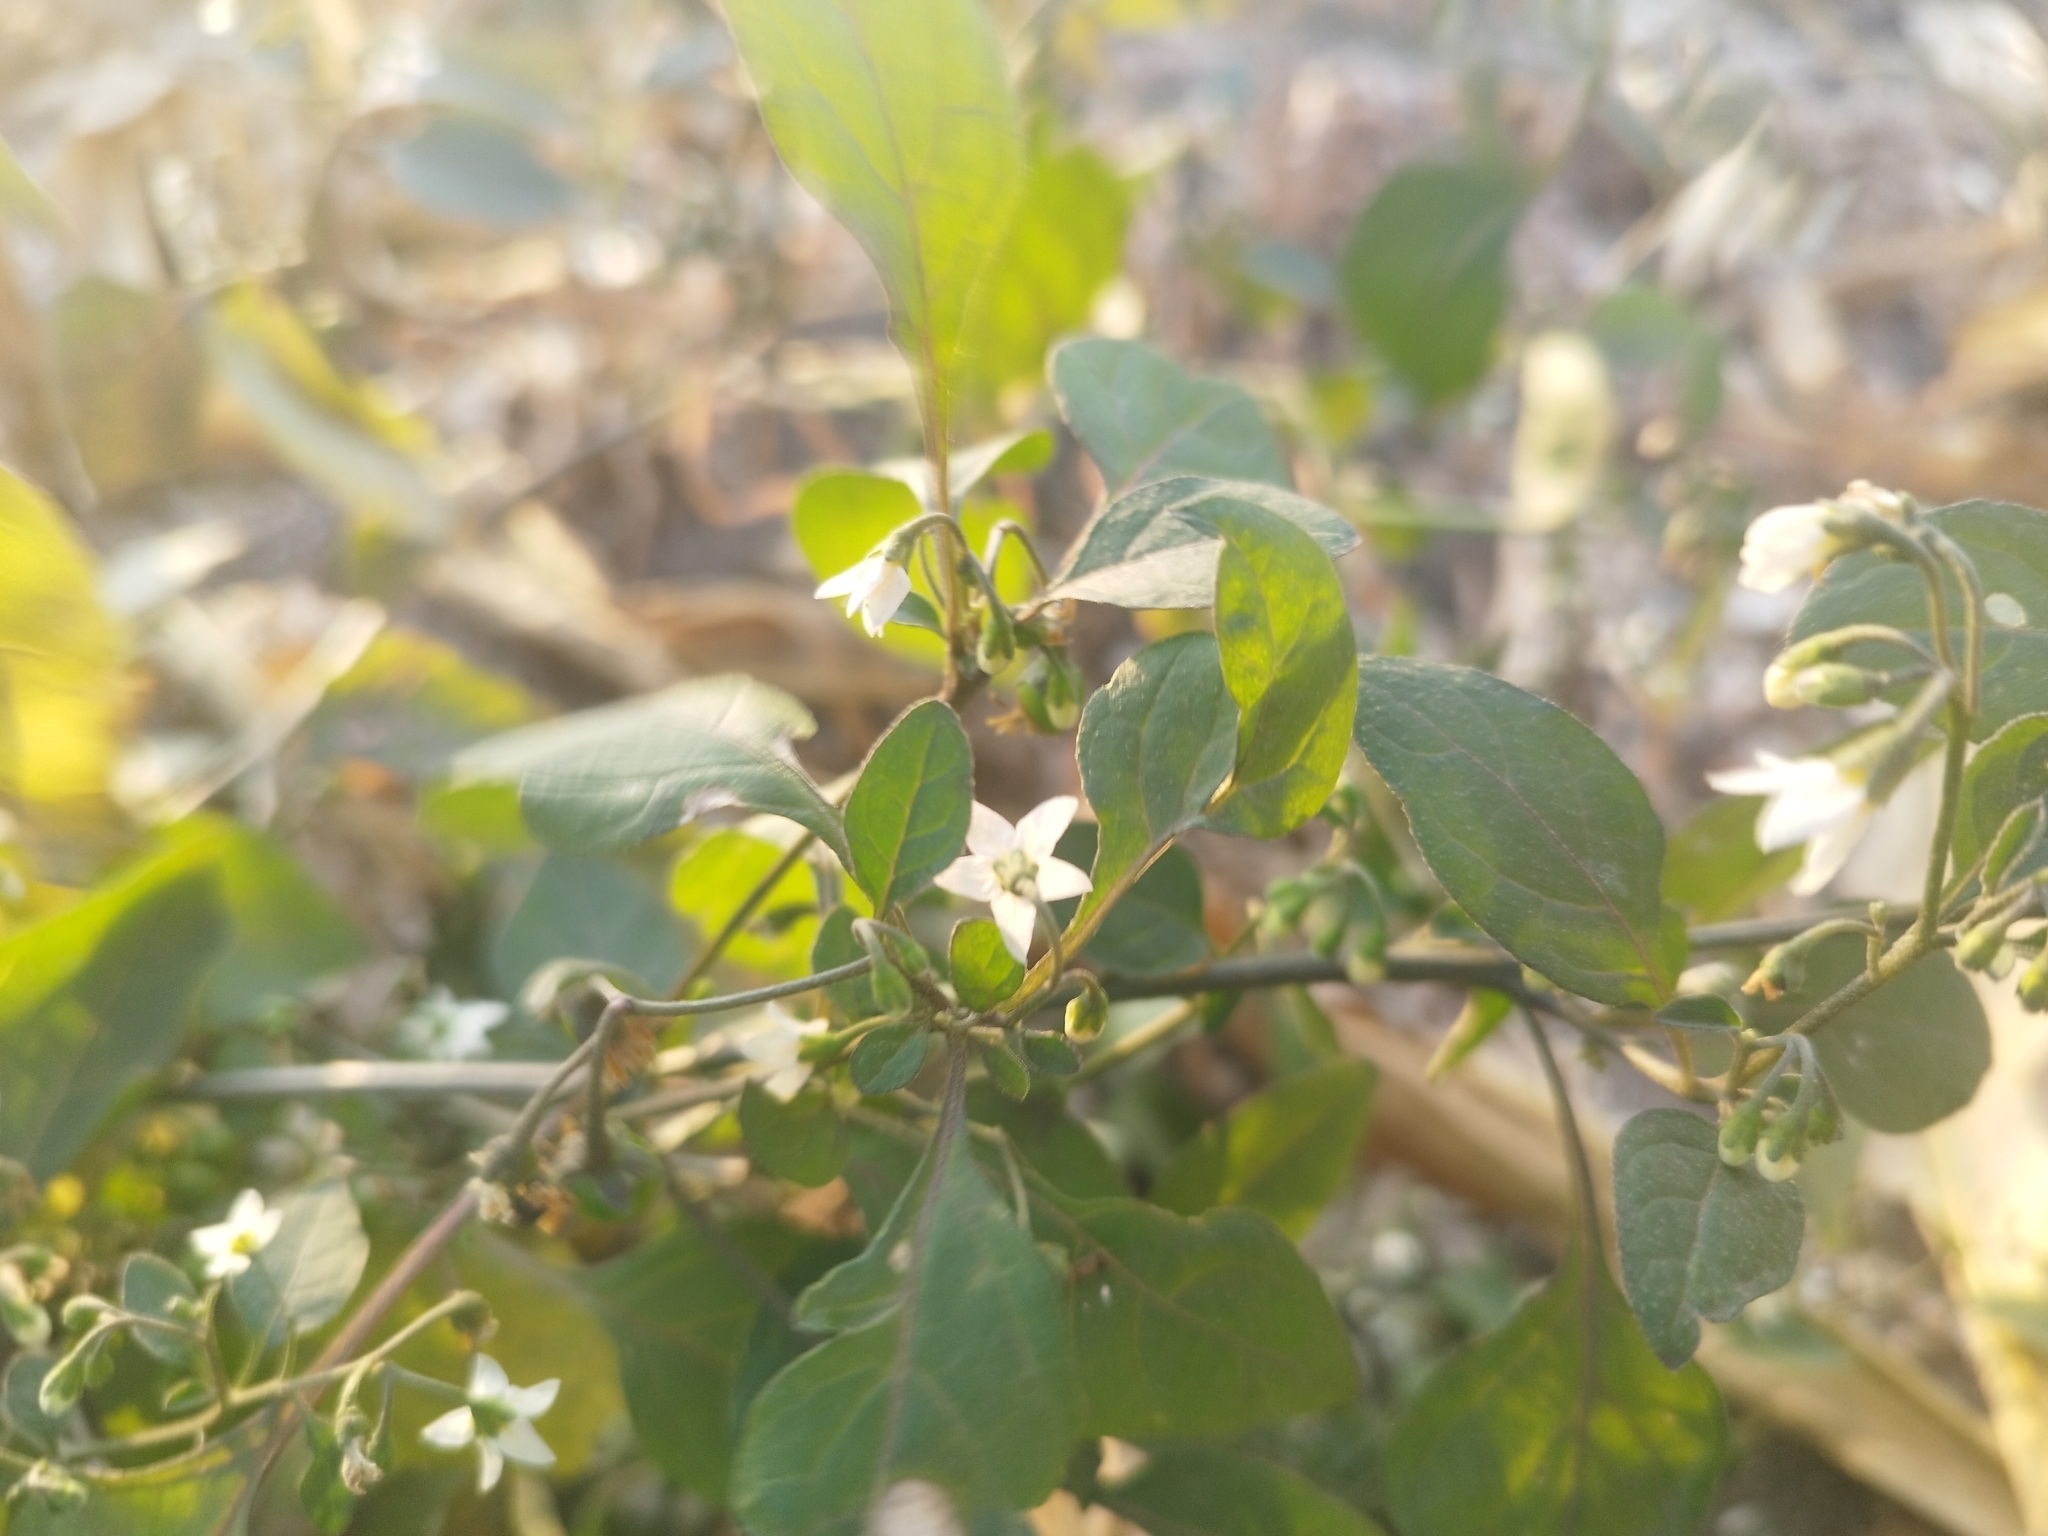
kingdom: Plantae
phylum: Tracheophyta
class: Magnoliopsida
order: Solanales
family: Solanaceae
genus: Solanum
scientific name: Solanum nigrum
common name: Black nightshade
